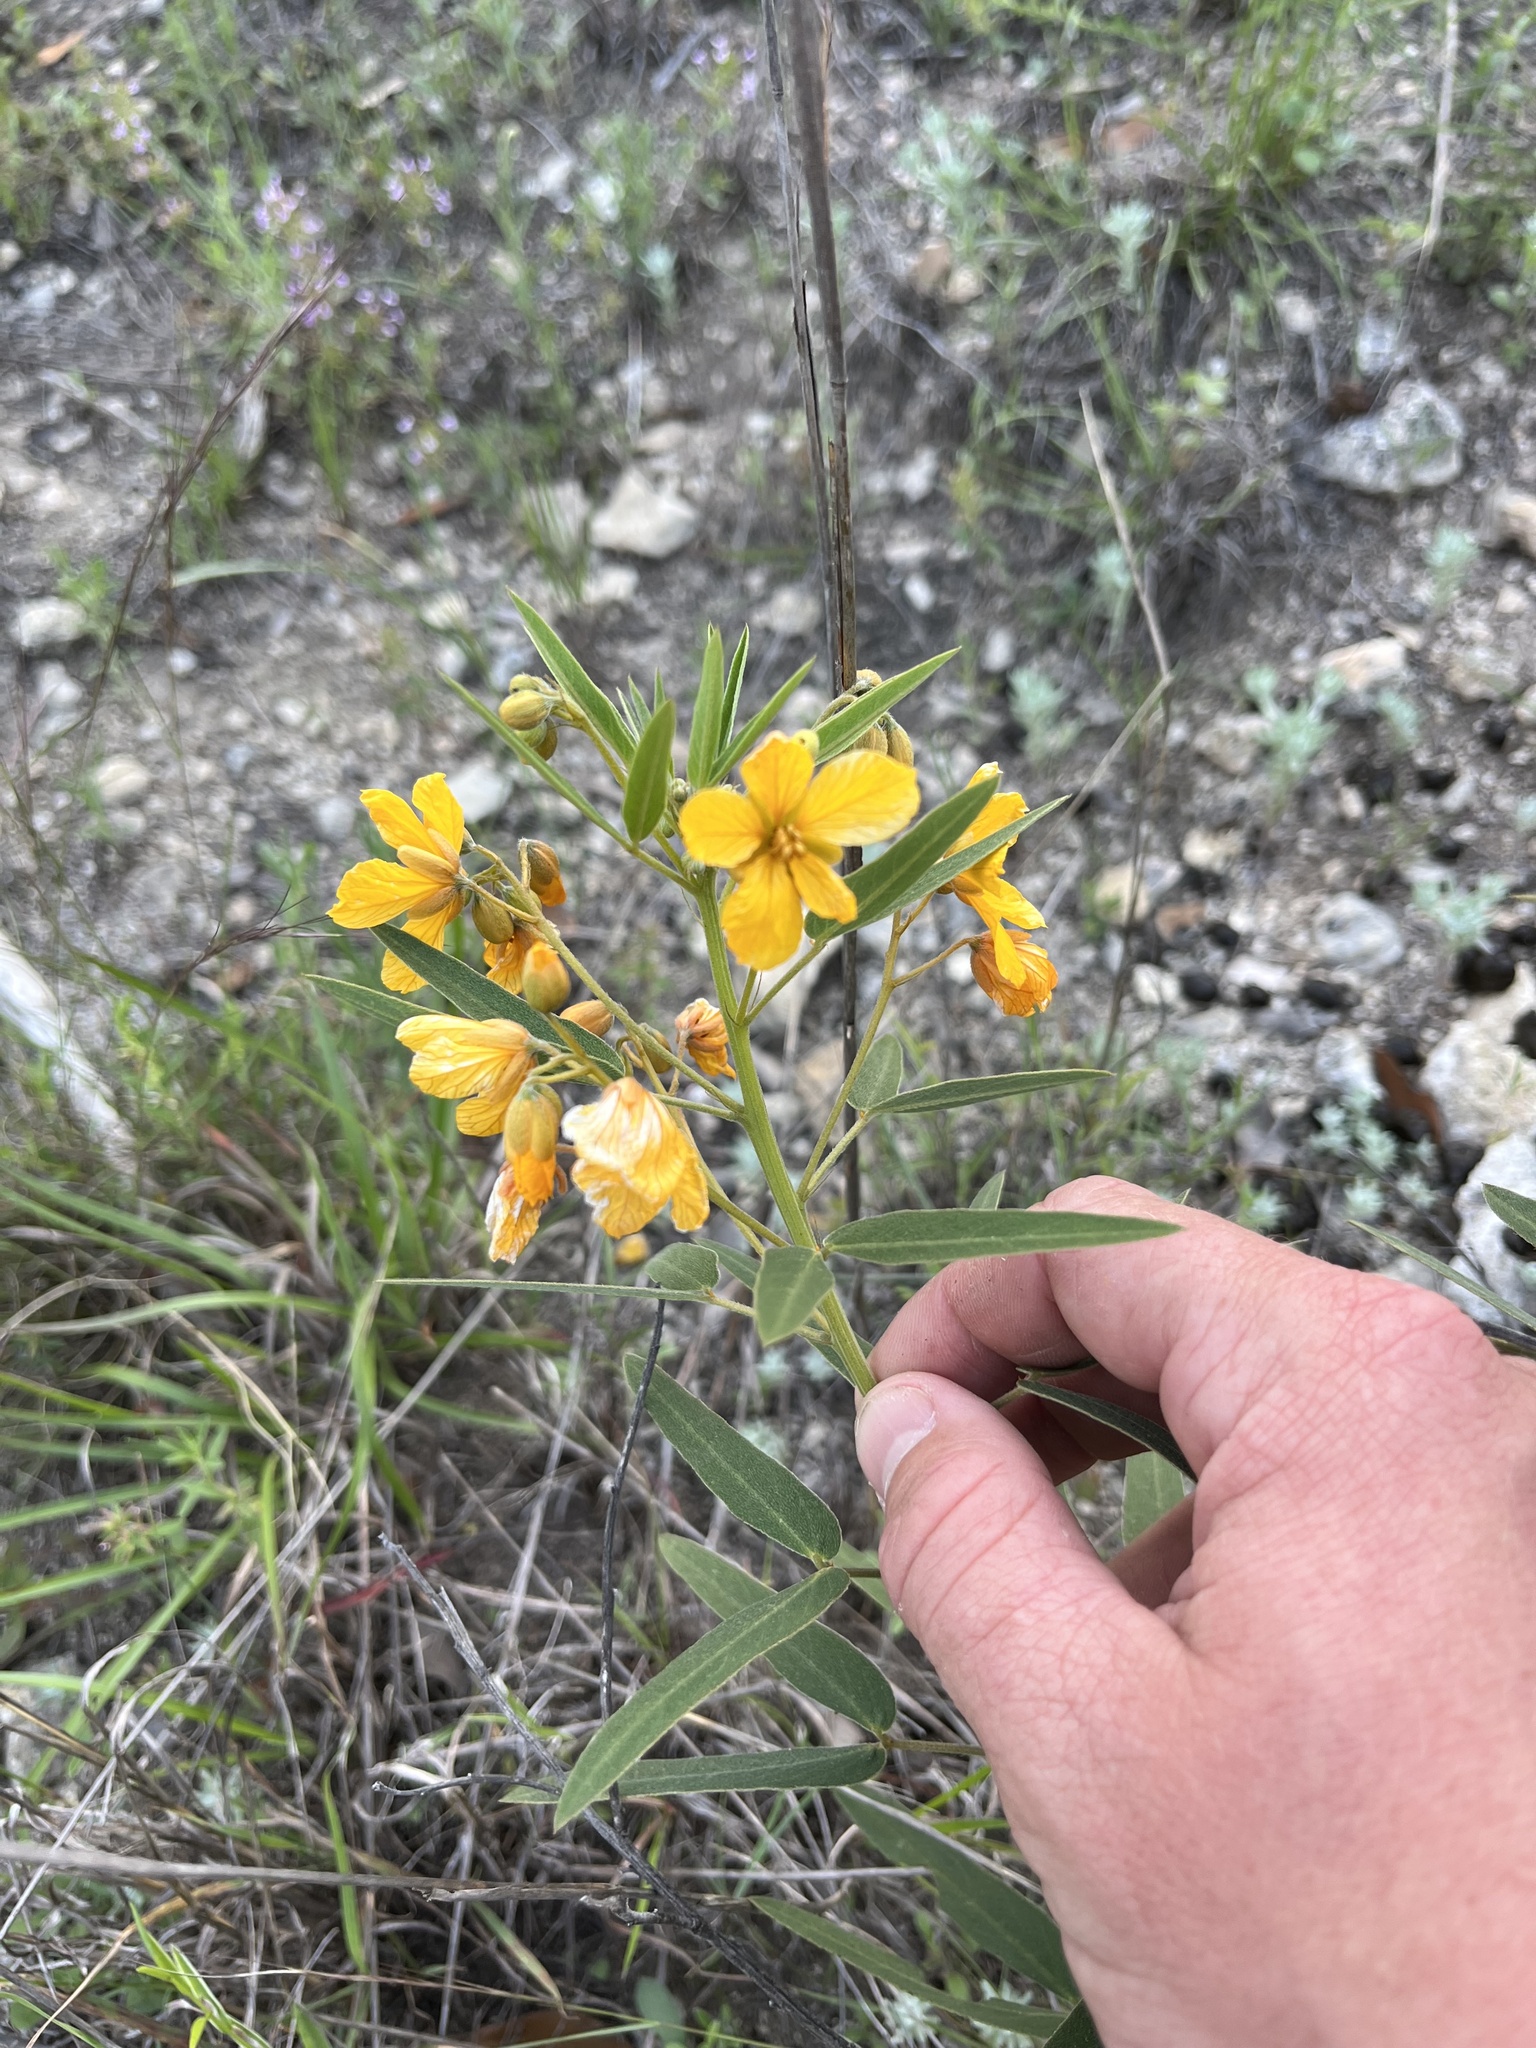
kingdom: Plantae
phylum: Tracheophyta
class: Magnoliopsida
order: Fabales
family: Fabaceae
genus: Senna
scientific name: Senna roemeriana
